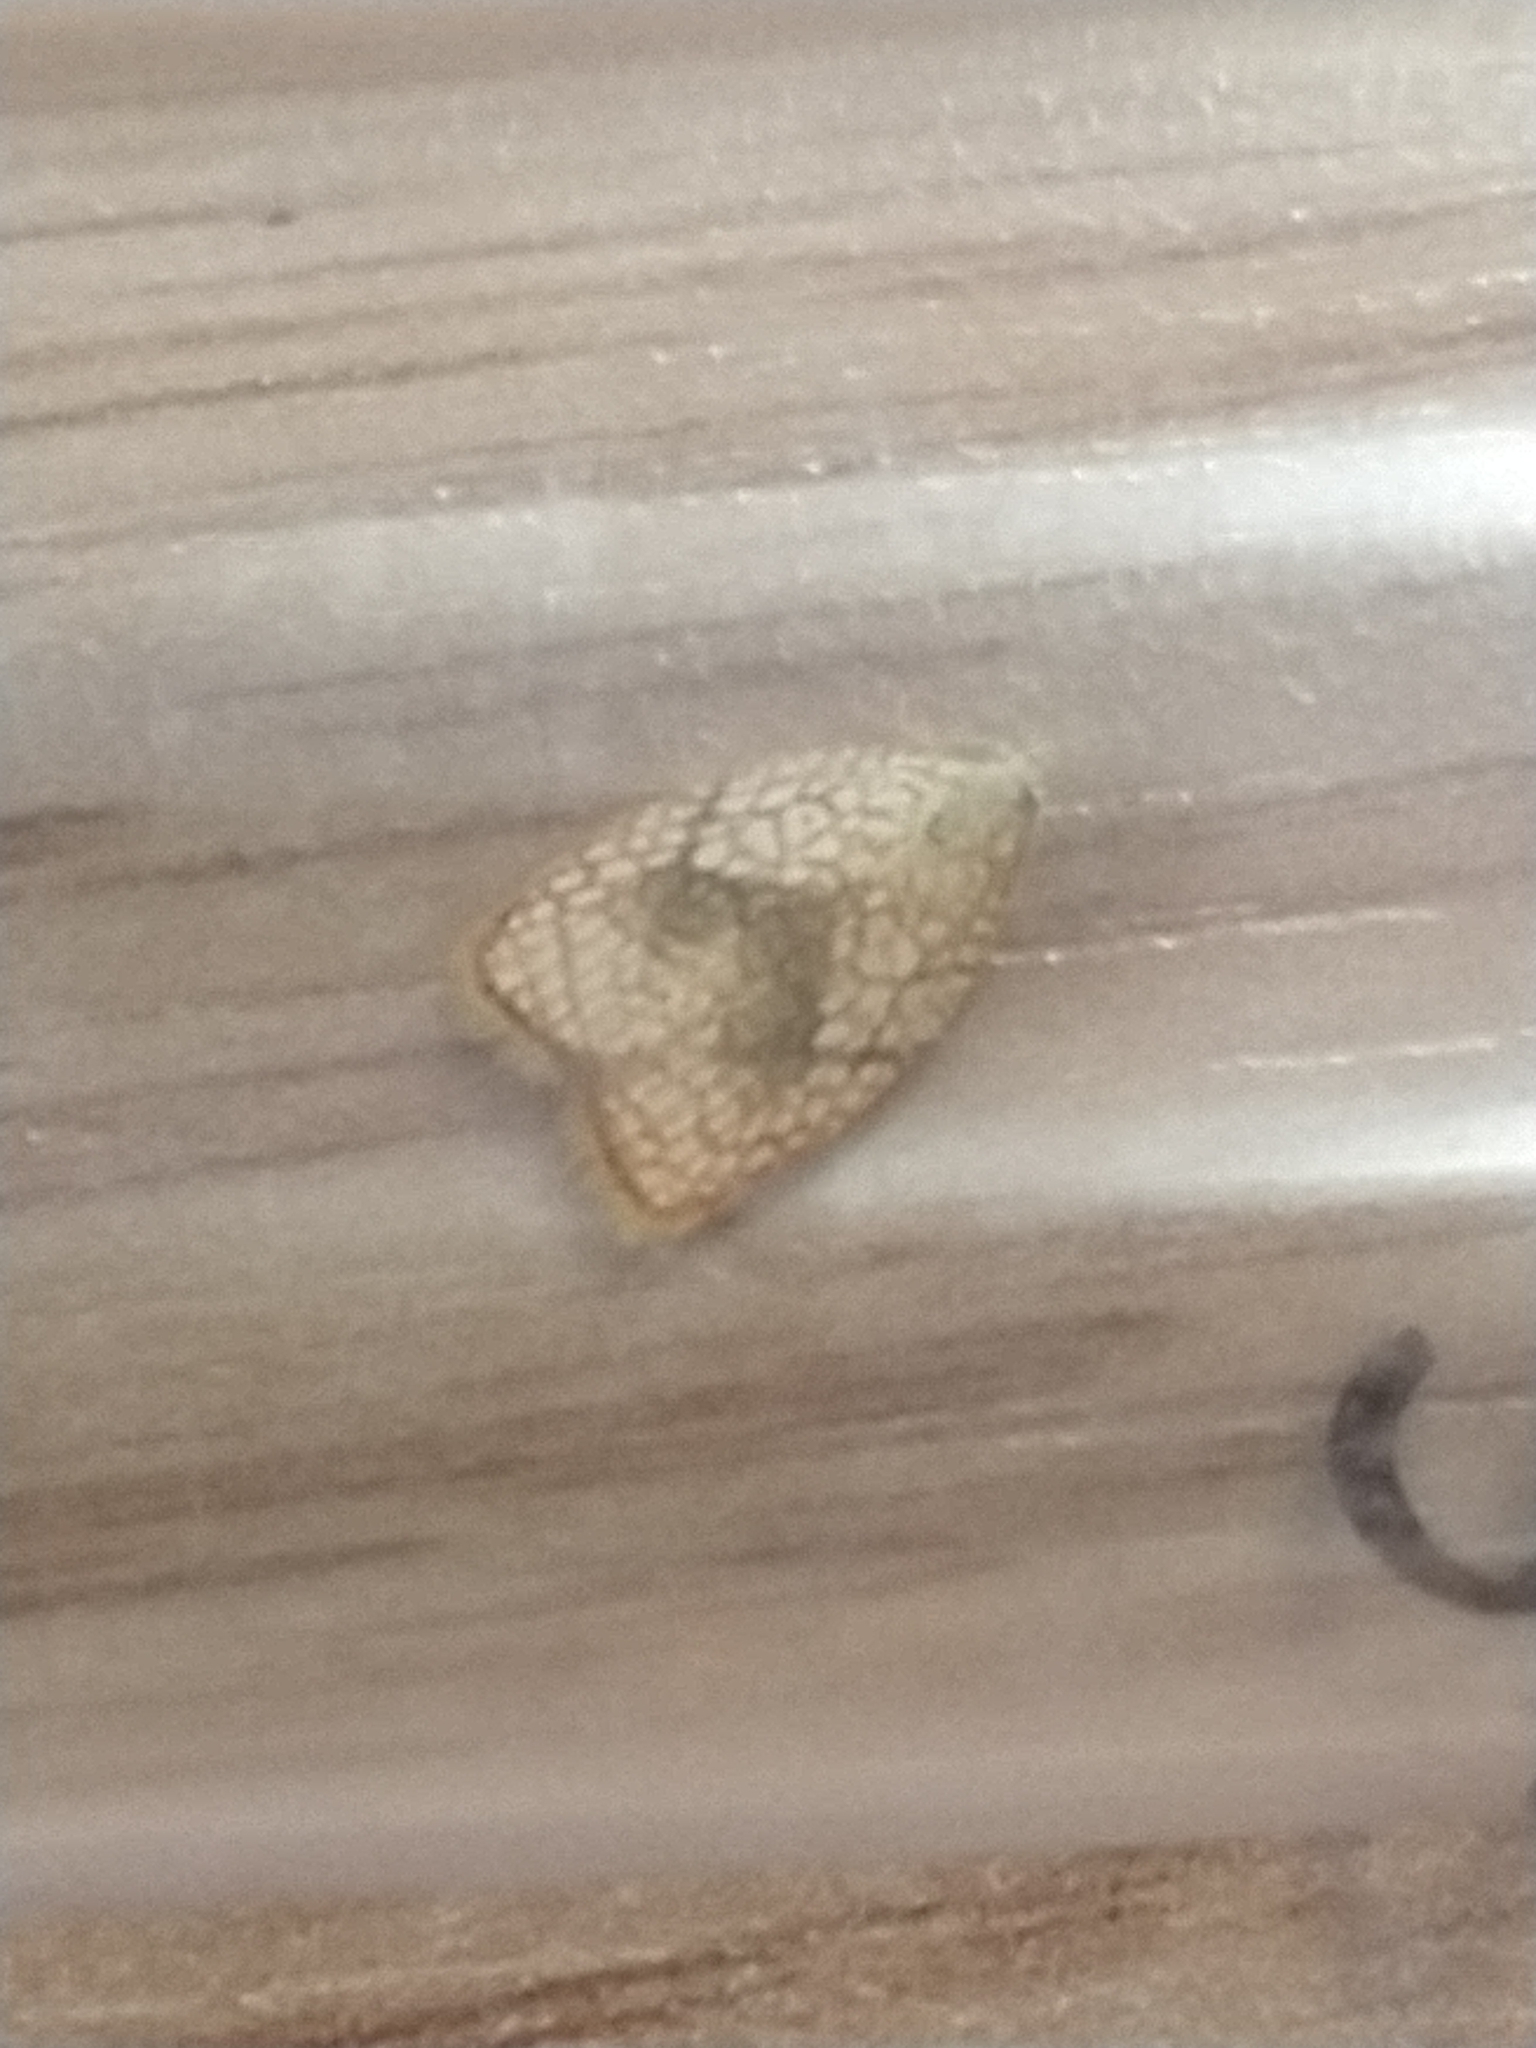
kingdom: Animalia
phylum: Arthropoda
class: Insecta
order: Lepidoptera
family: Tortricidae
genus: Acleris
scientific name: Acleris forsskaleana
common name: Maple button
